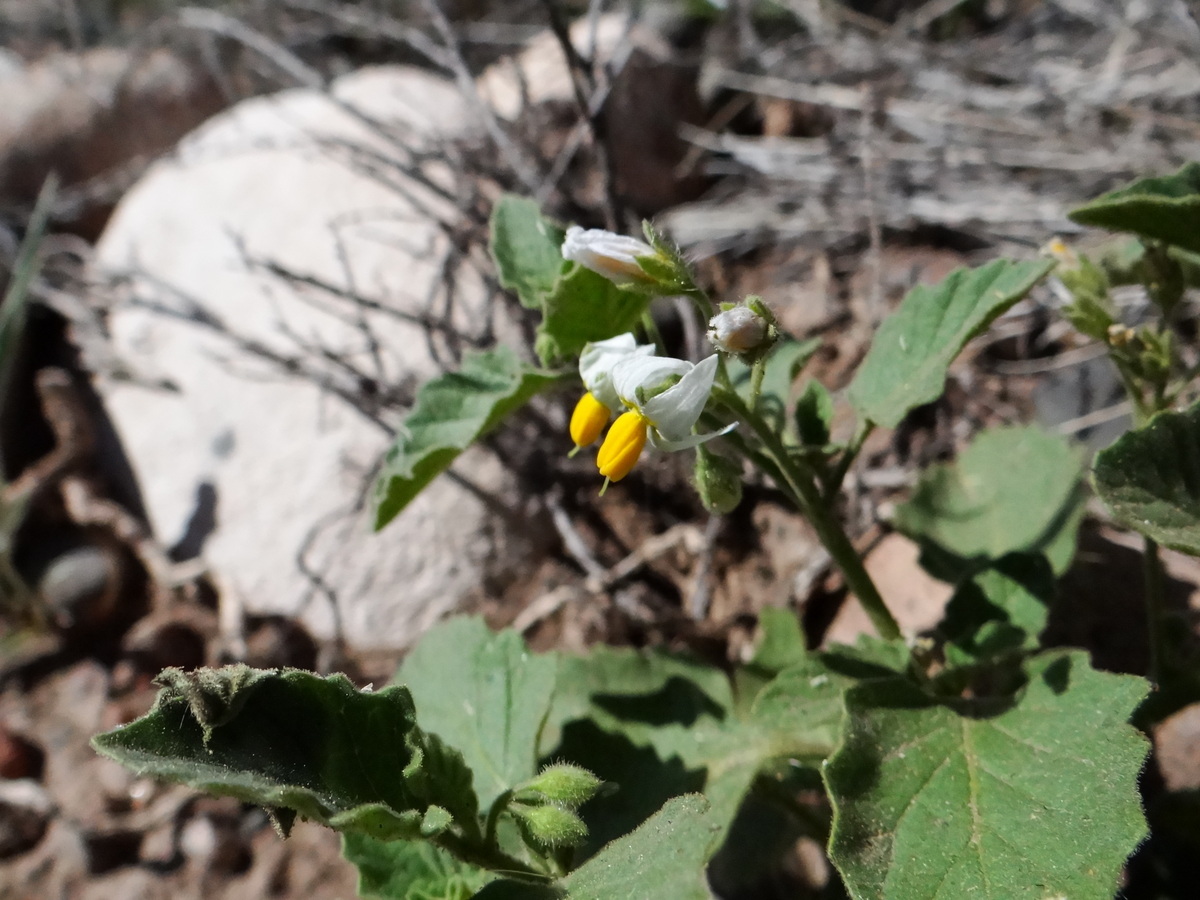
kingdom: Plantae
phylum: Tracheophyta
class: Magnoliopsida
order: Solanales
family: Solanaceae
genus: Solanum
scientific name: Solanum tweedianum
